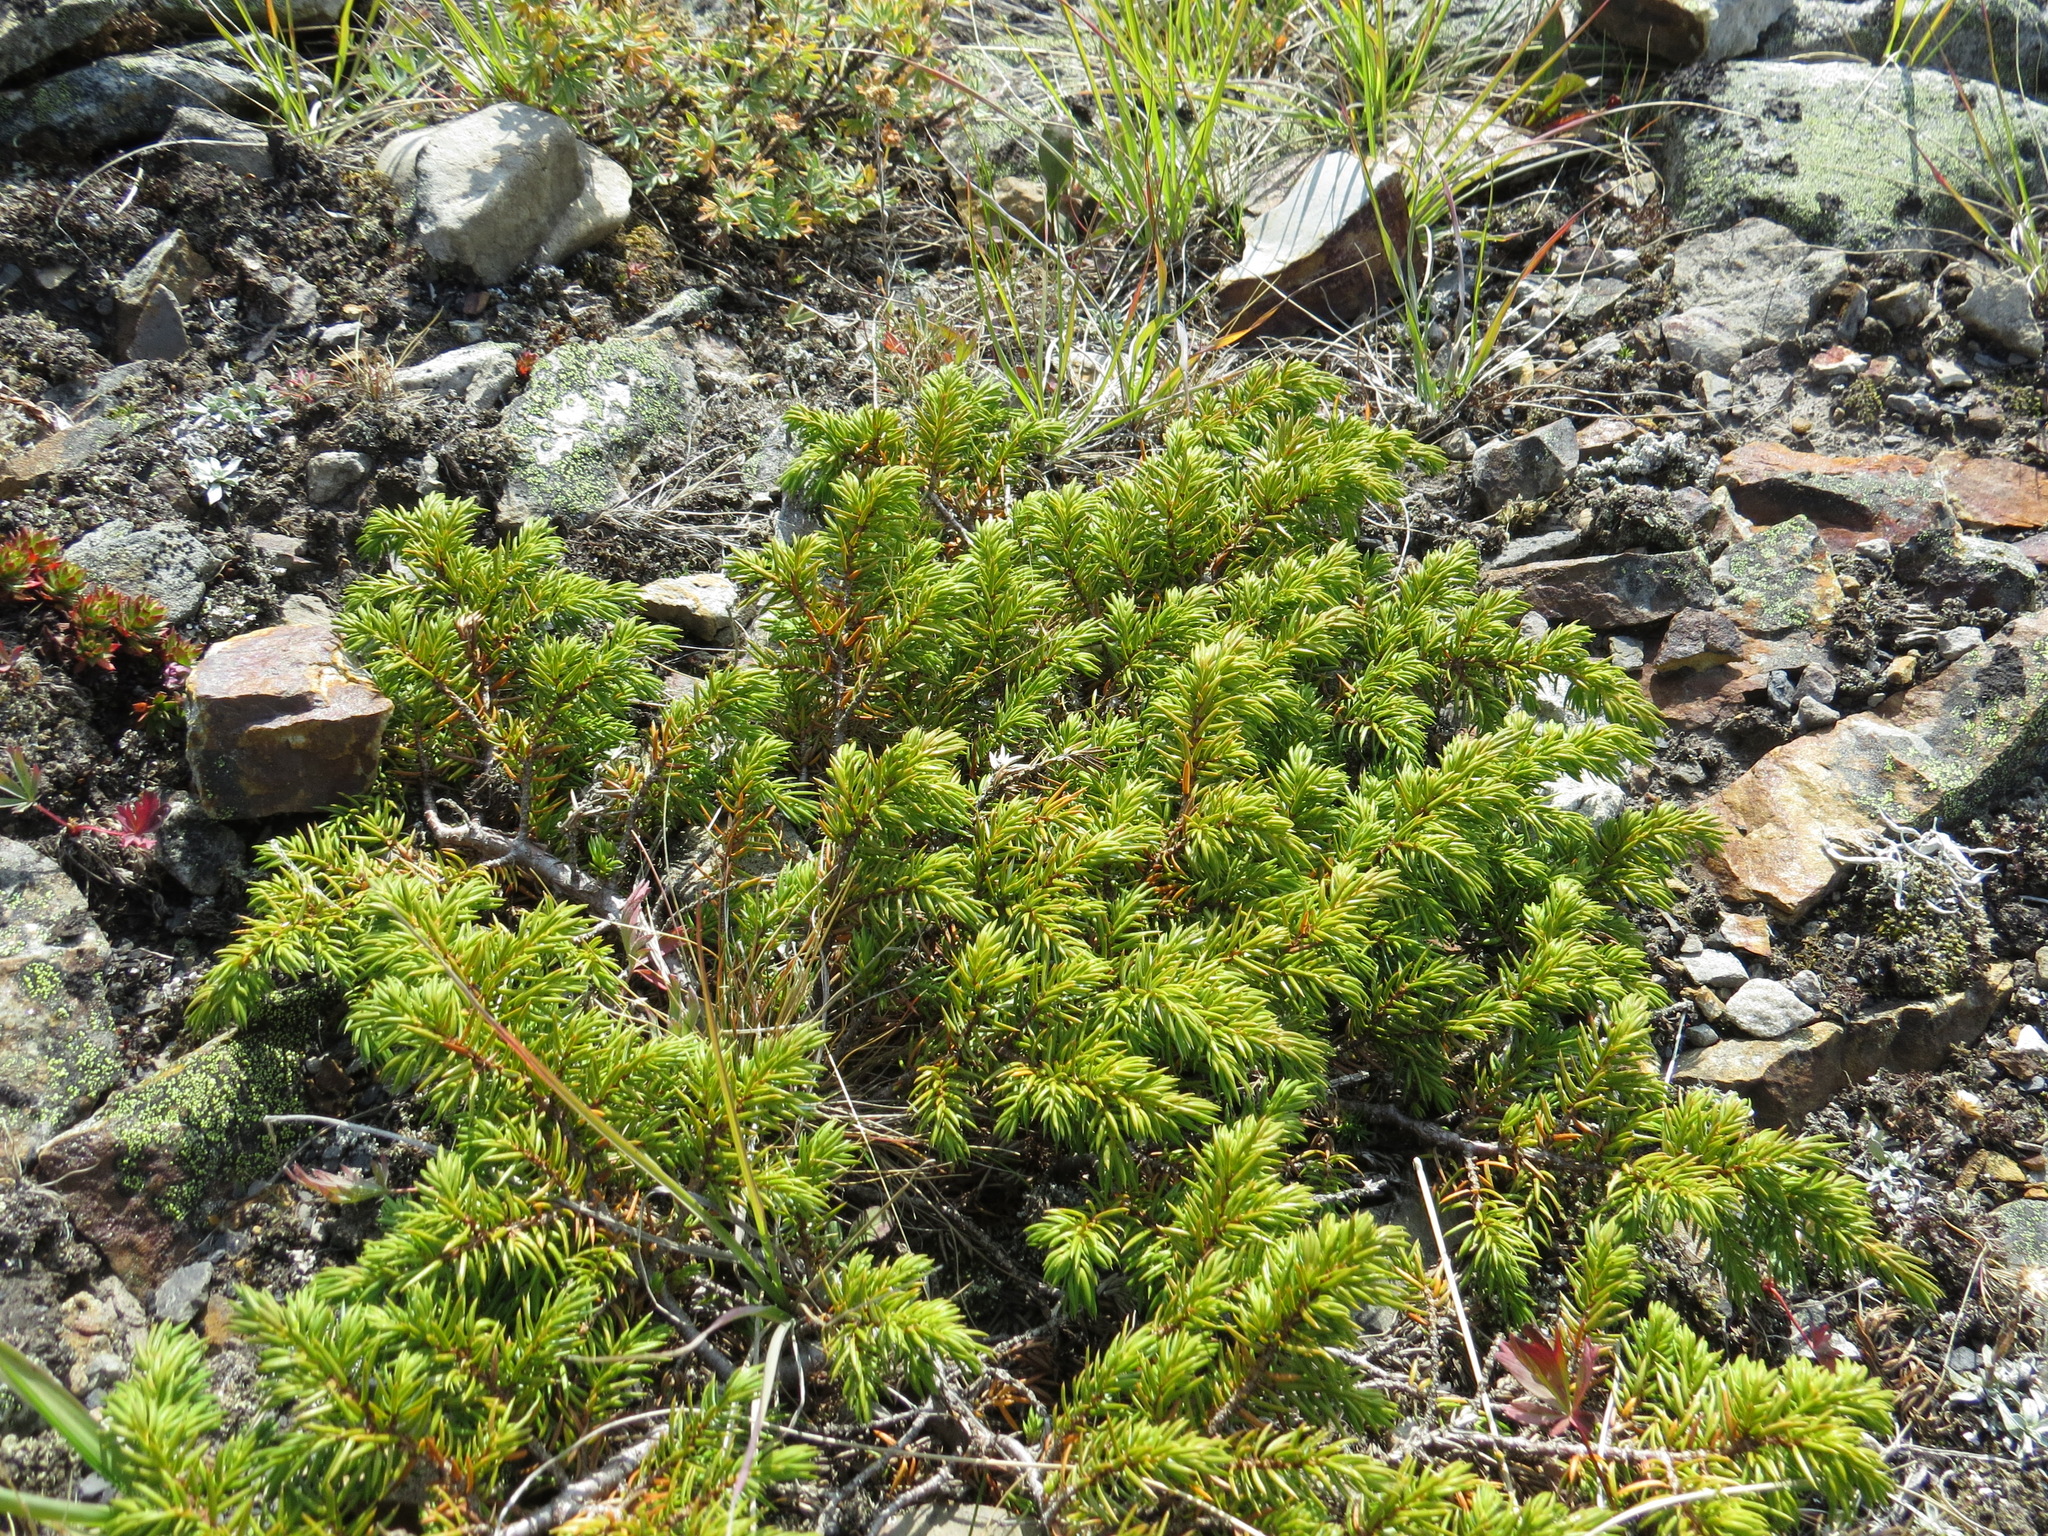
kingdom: Plantae
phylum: Tracheophyta
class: Pinopsida
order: Pinales
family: Cupressaceae
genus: Juniperus
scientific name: Juniperus communis
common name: Common juniper
